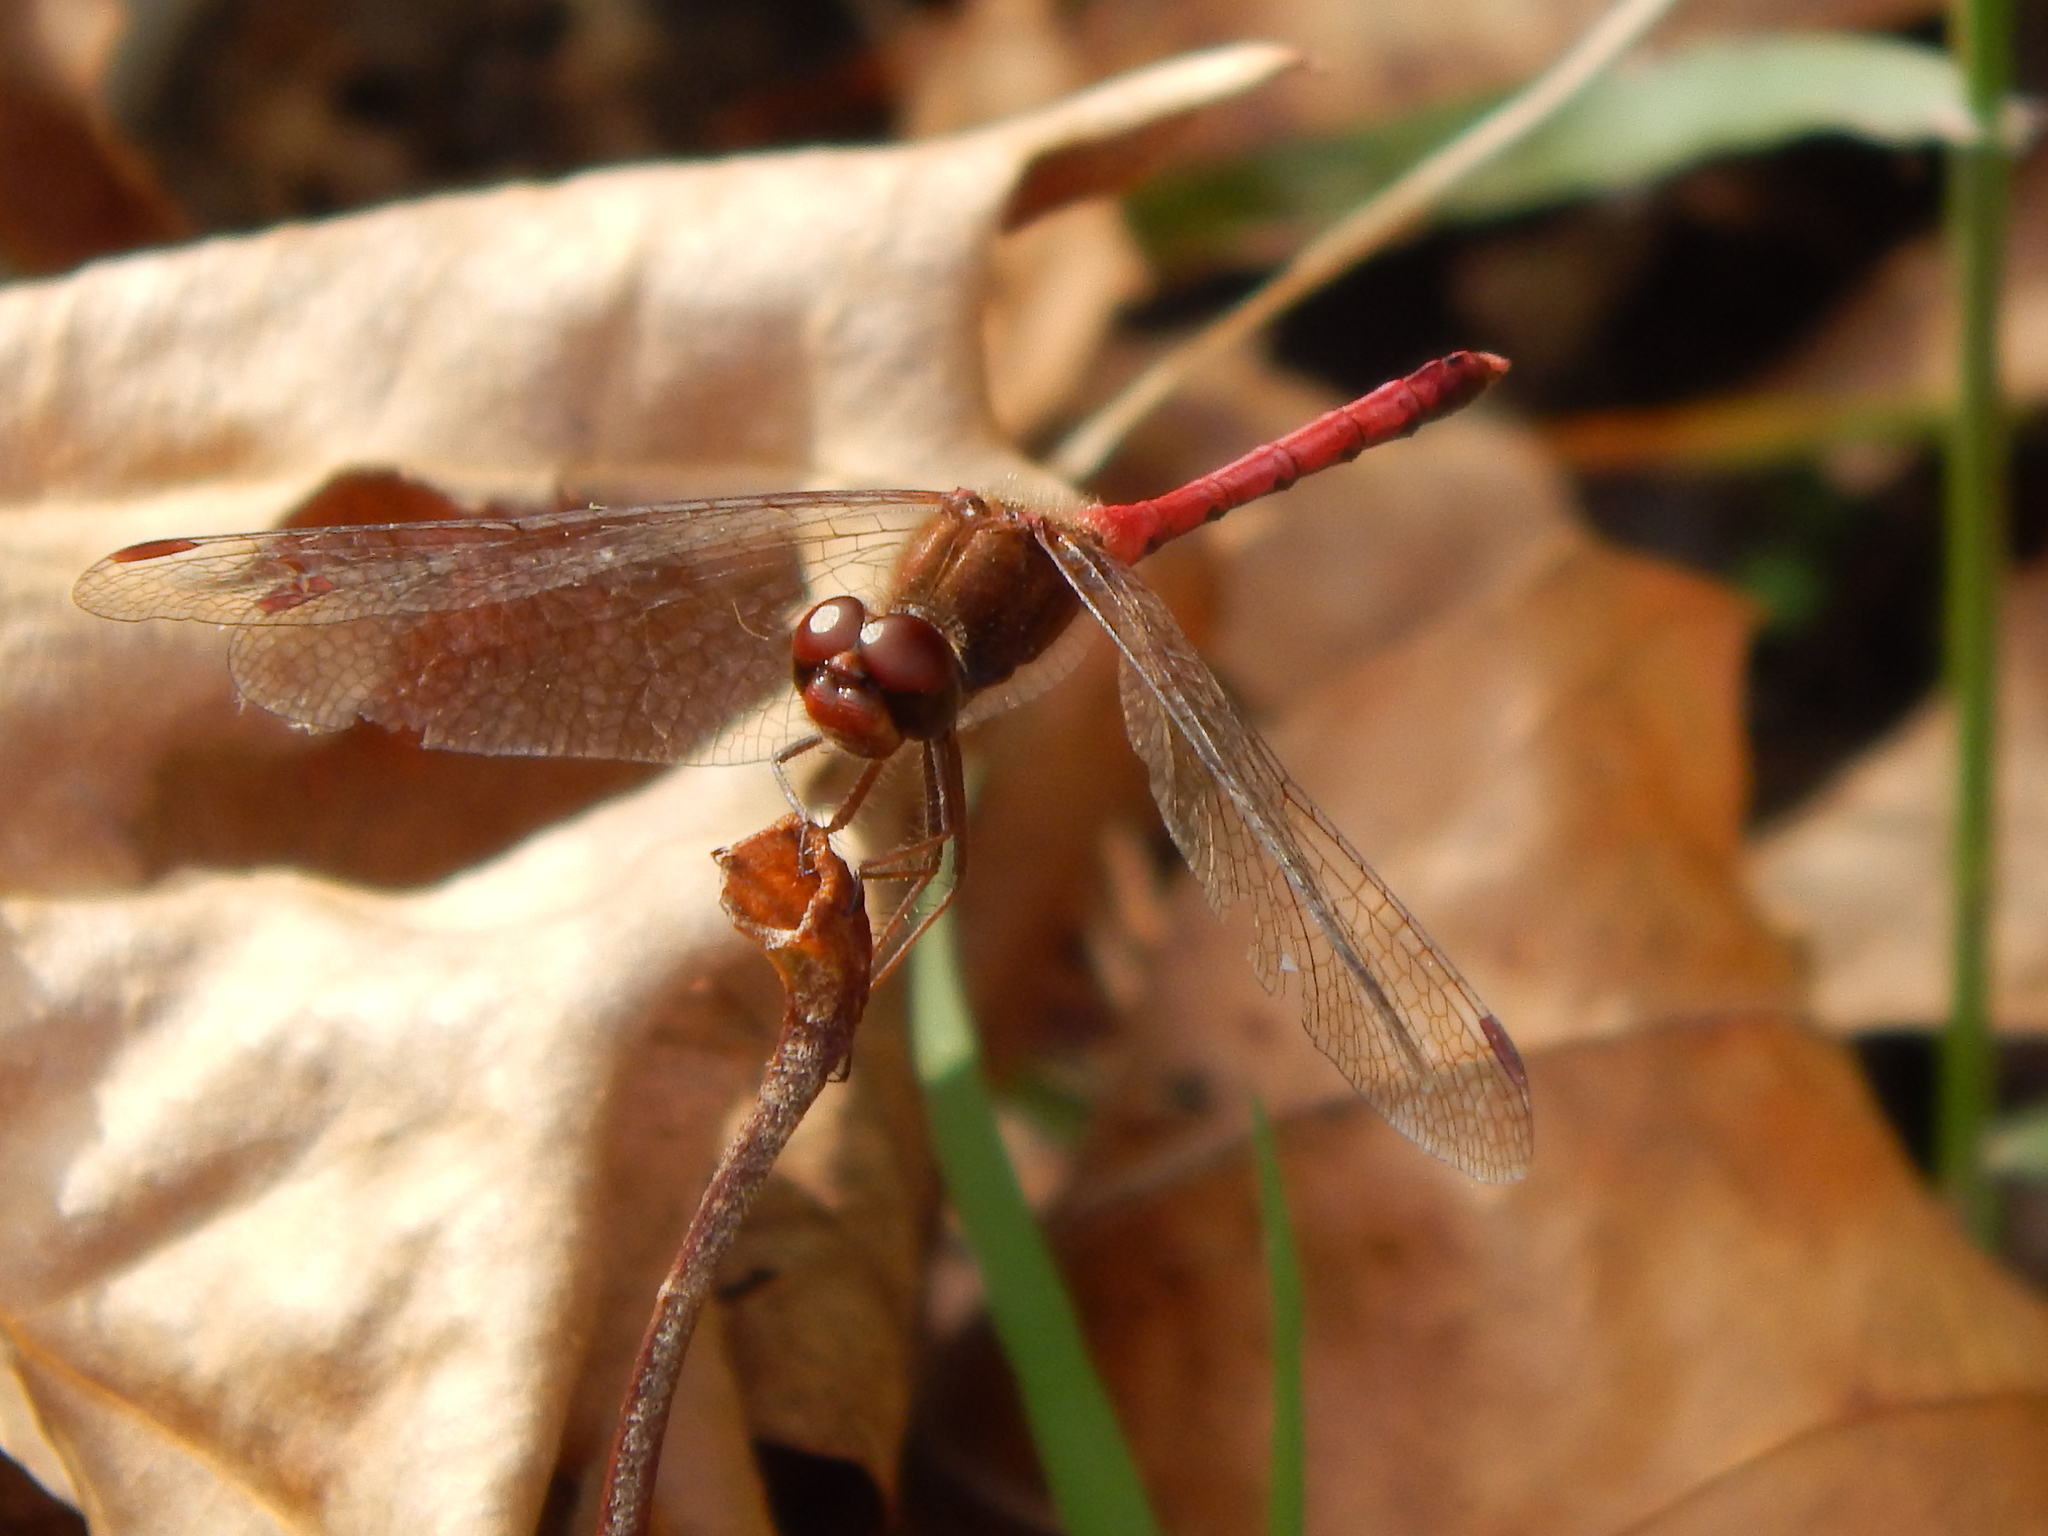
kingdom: Animalia
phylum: Arthropoda
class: Insecta
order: Odonata
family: Libellulidae
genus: Sympetrum
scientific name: Sympetrum vicinum
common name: Autumn meadowhawk
